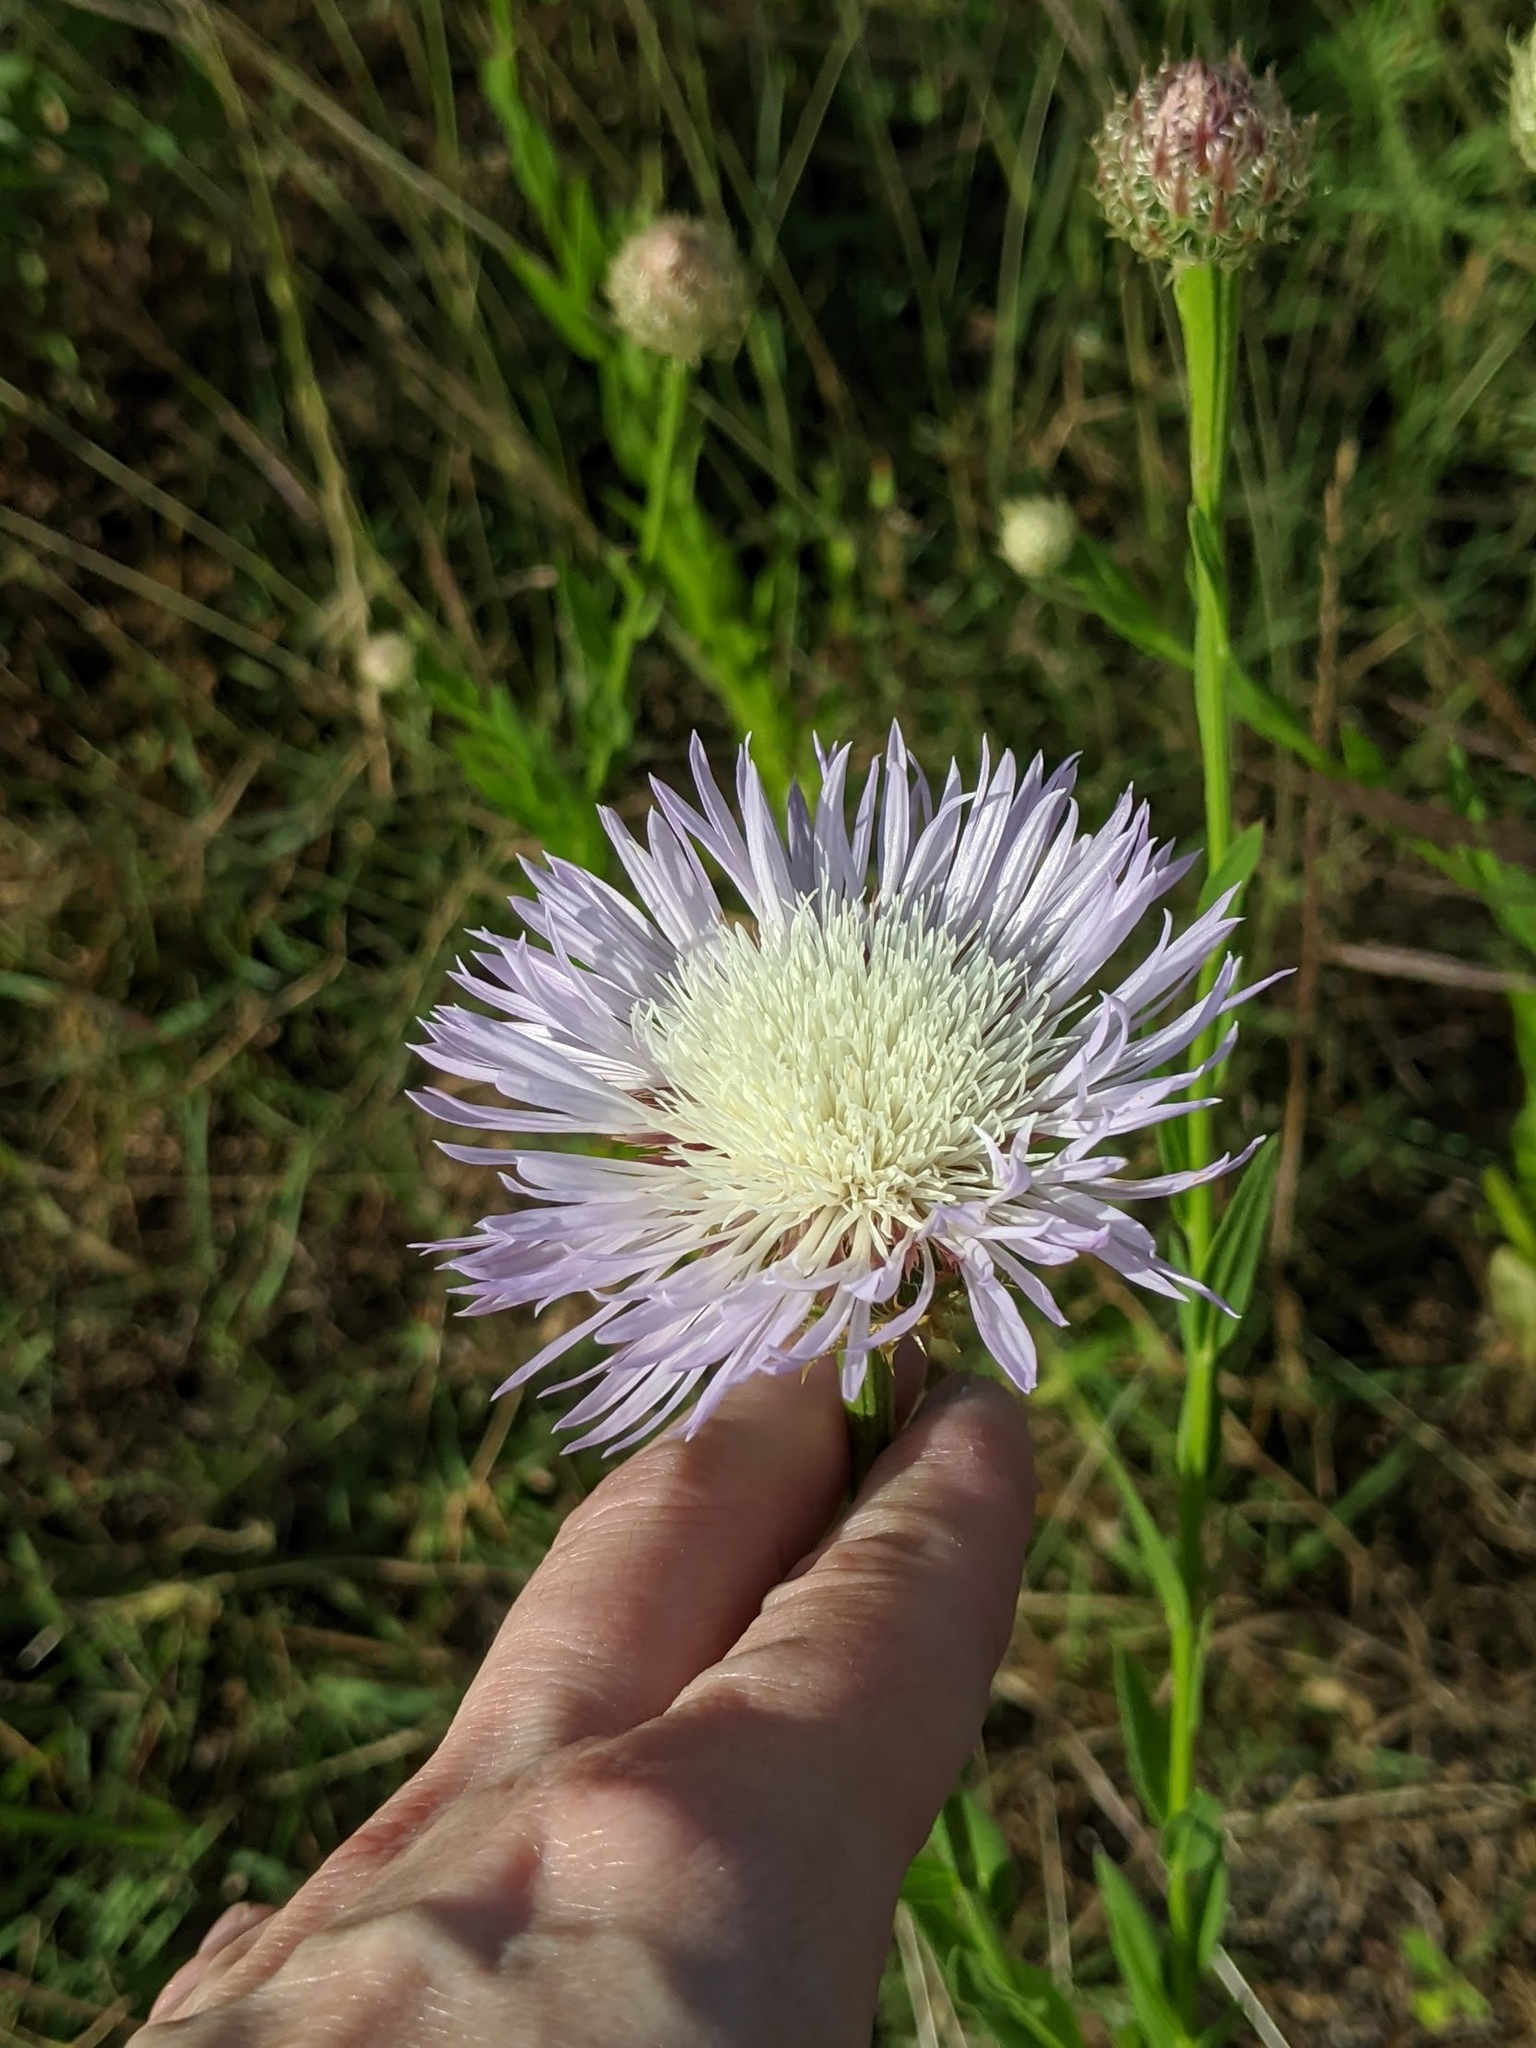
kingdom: Plantae
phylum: Tracheophyta
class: Magnoliopsida
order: Asterales
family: Asteraceae
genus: Plectocephalus
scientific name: Plectocephalus americanus
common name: American basket-flower
